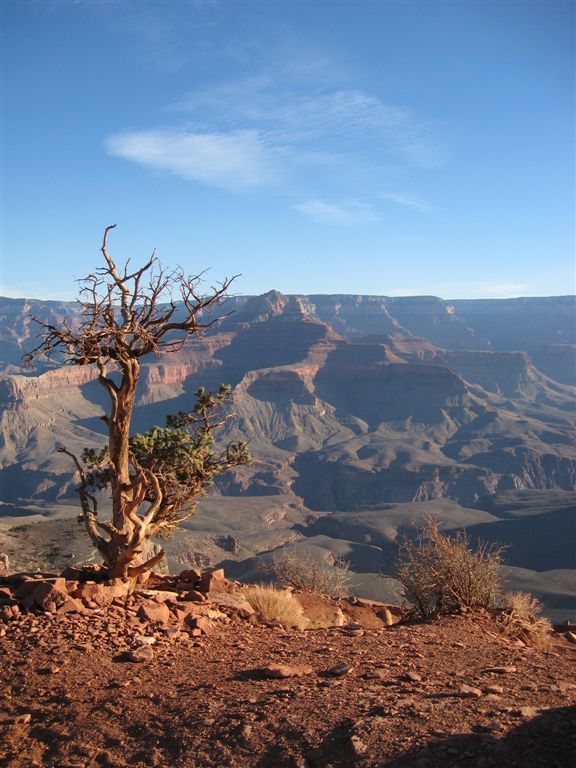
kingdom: Plantae
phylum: Tracheophyta
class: Pinopsida
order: Pinales
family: Cupressaceae
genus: Juniperus
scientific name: Juniperus osteosperma
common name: Utah juniper
